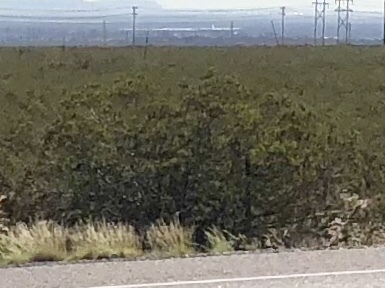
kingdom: Plantae
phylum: Tracheophyta
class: Magnoliopsida
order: Zygophyllales
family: Zygophyllaceae
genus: Larrea
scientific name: Larrea tridentata
